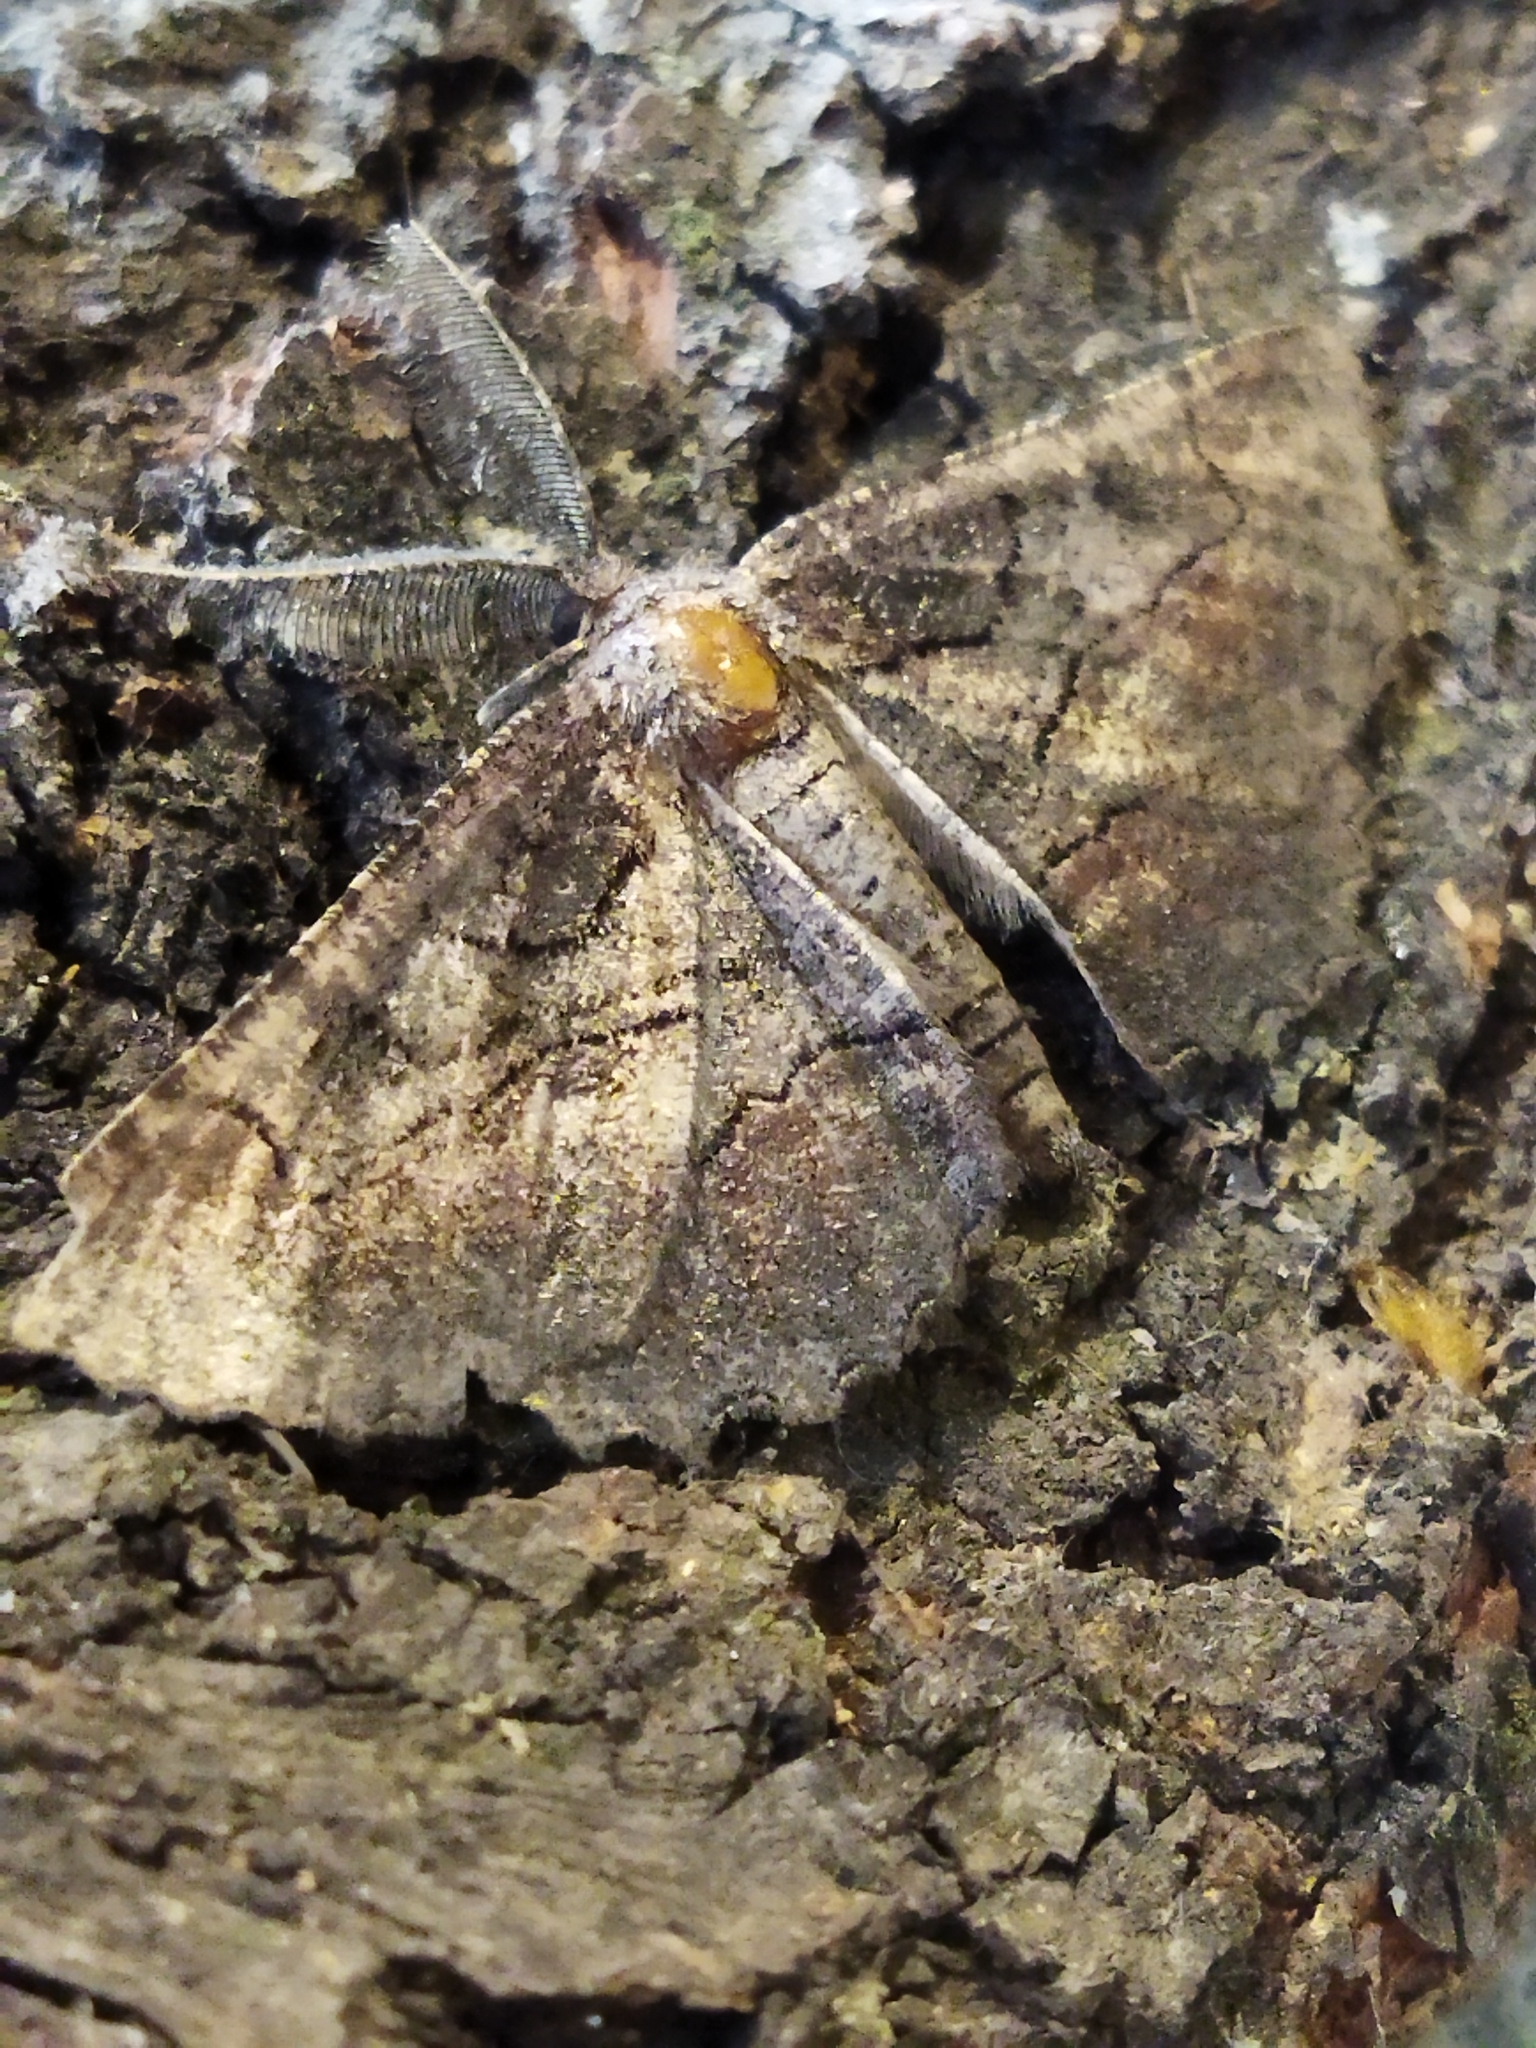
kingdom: Animalia
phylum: Arthropoda
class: Insecta
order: Lepidoptera
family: Geometridae
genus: Nychiodes
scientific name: Nychiodes waltheri
